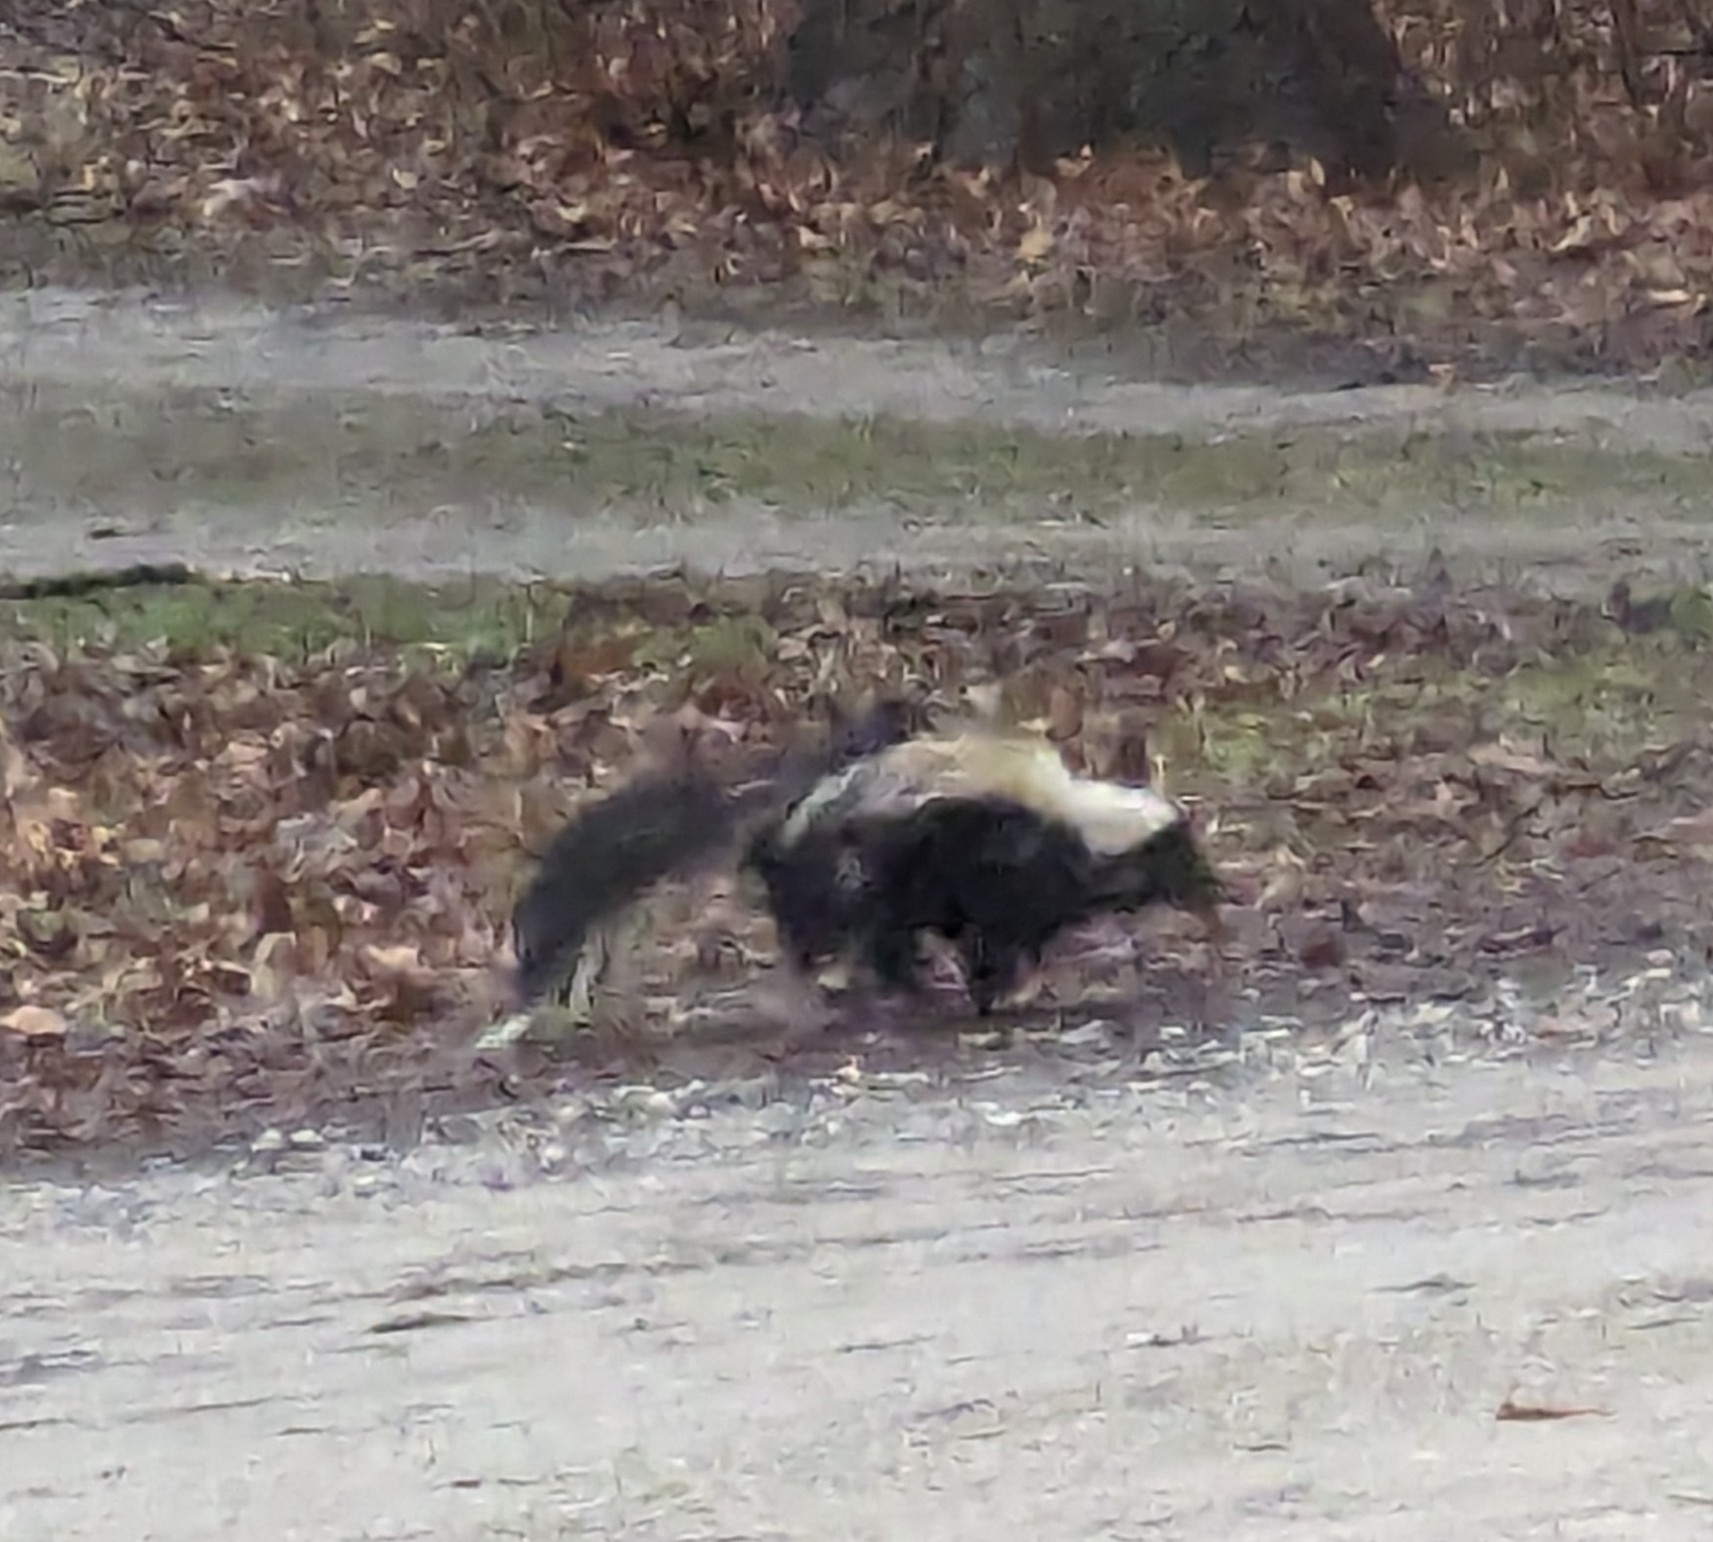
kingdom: Animalia
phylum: Chordata
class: Mammalia
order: Carnivora
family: Mephitidae
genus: Mephitis
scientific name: Mephitis mephitis
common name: Striped skunk
